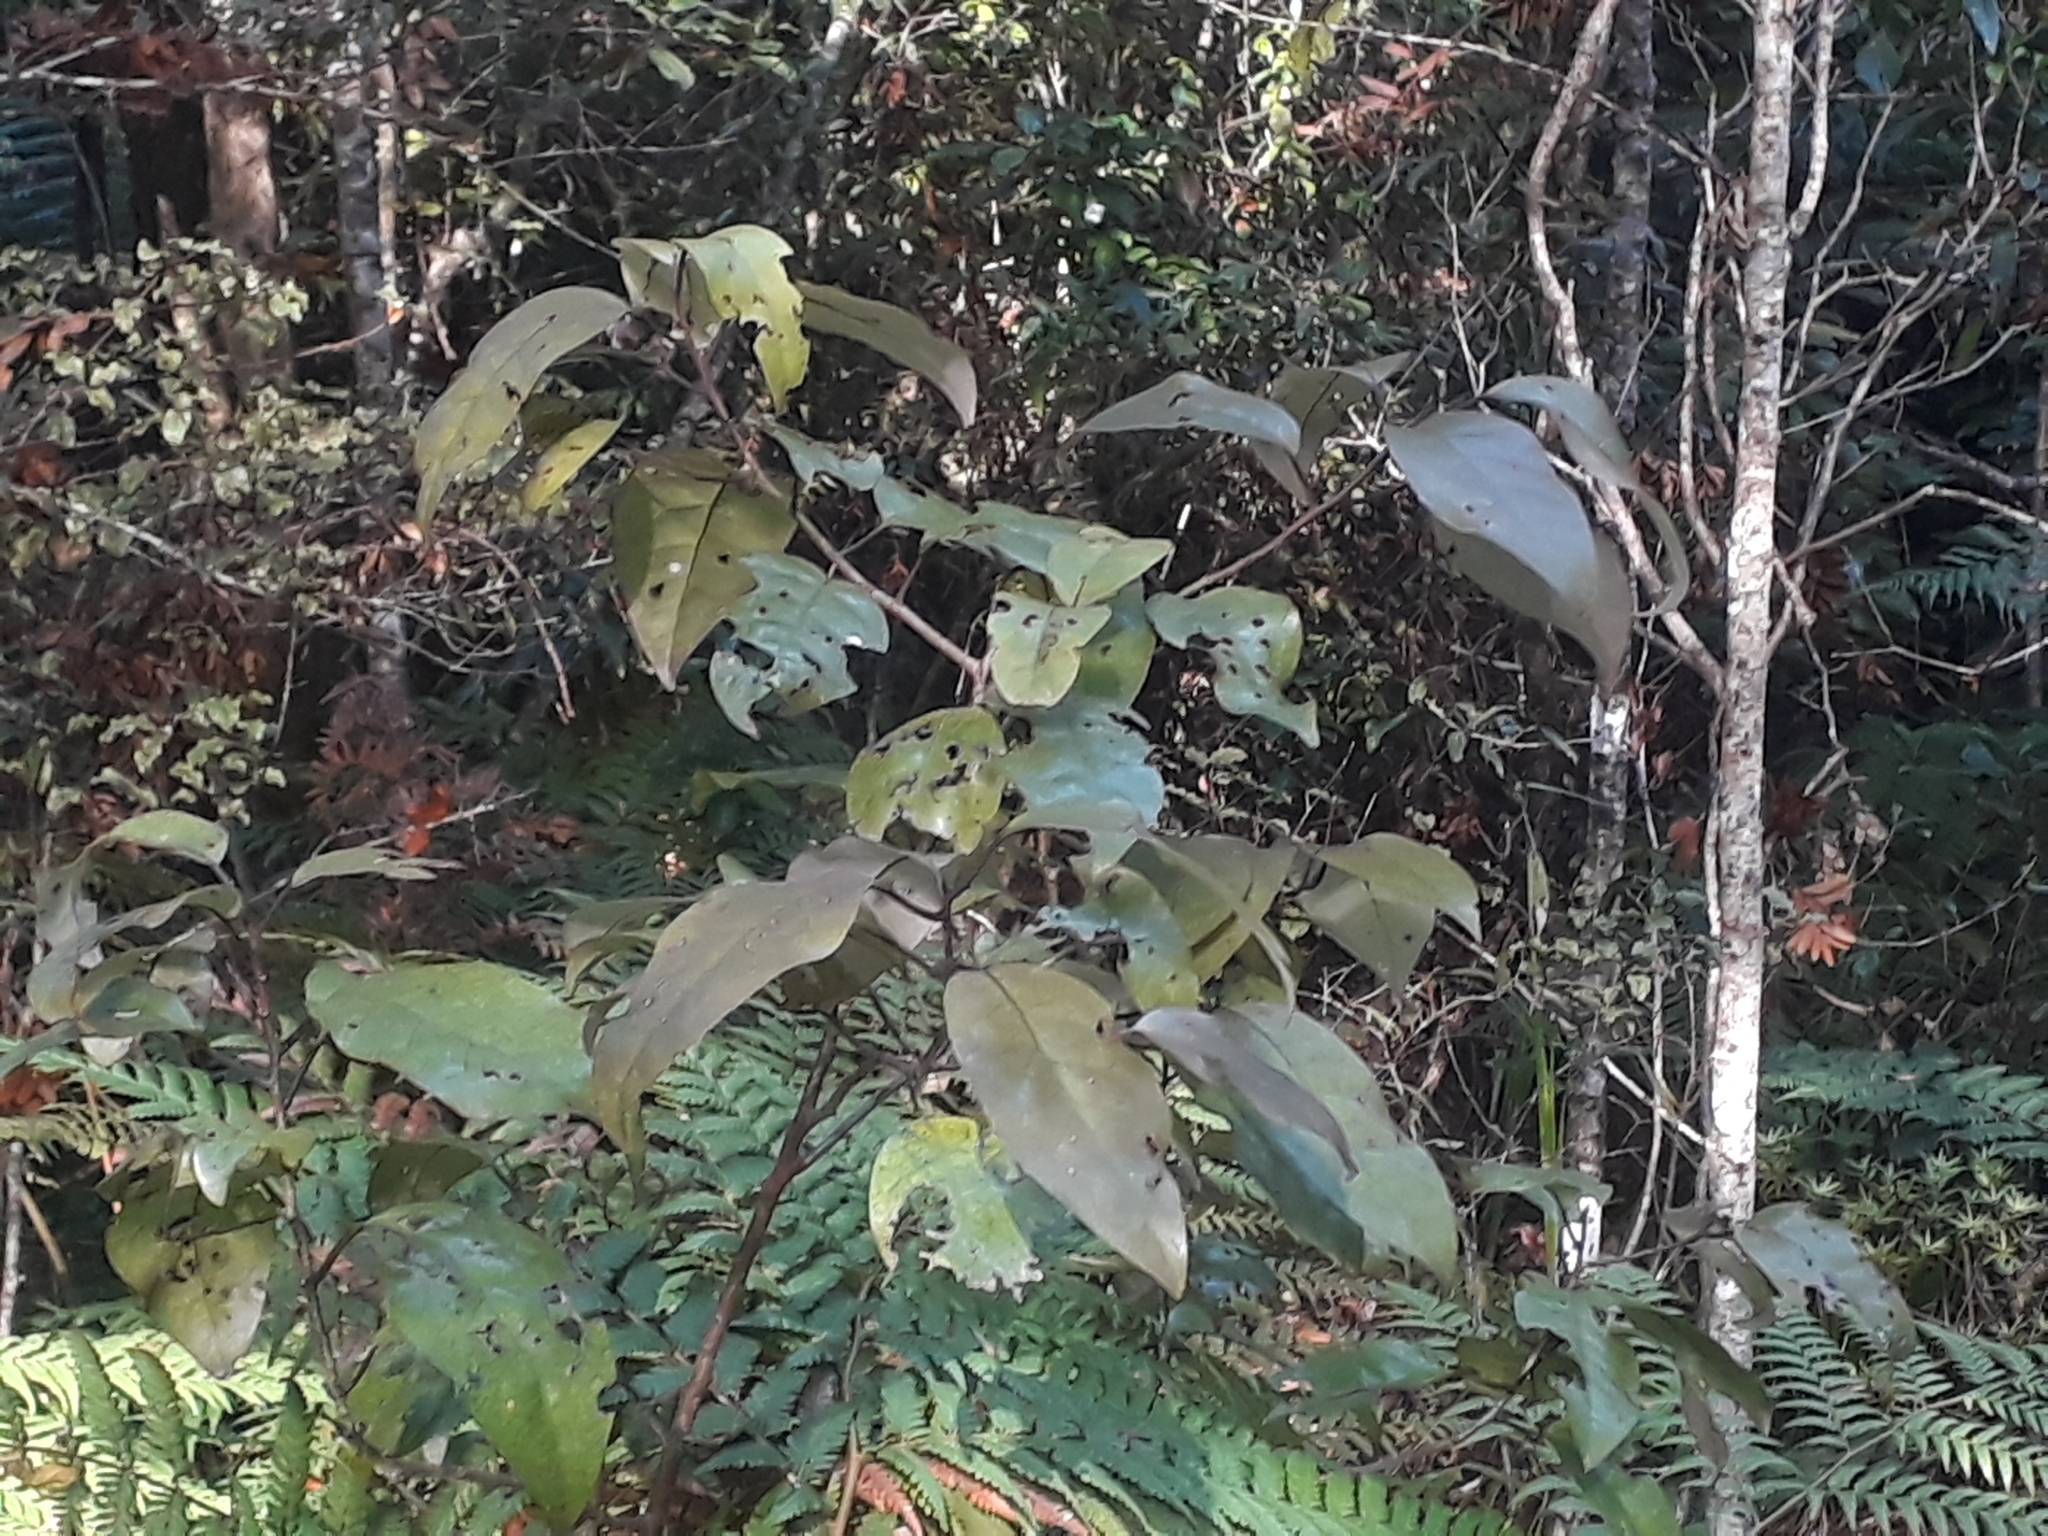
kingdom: Plantae
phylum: Tracheophyta
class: Magnoliopsida
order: Laurales
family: Lauraceae
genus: Litsea
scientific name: Litsea calicaris
